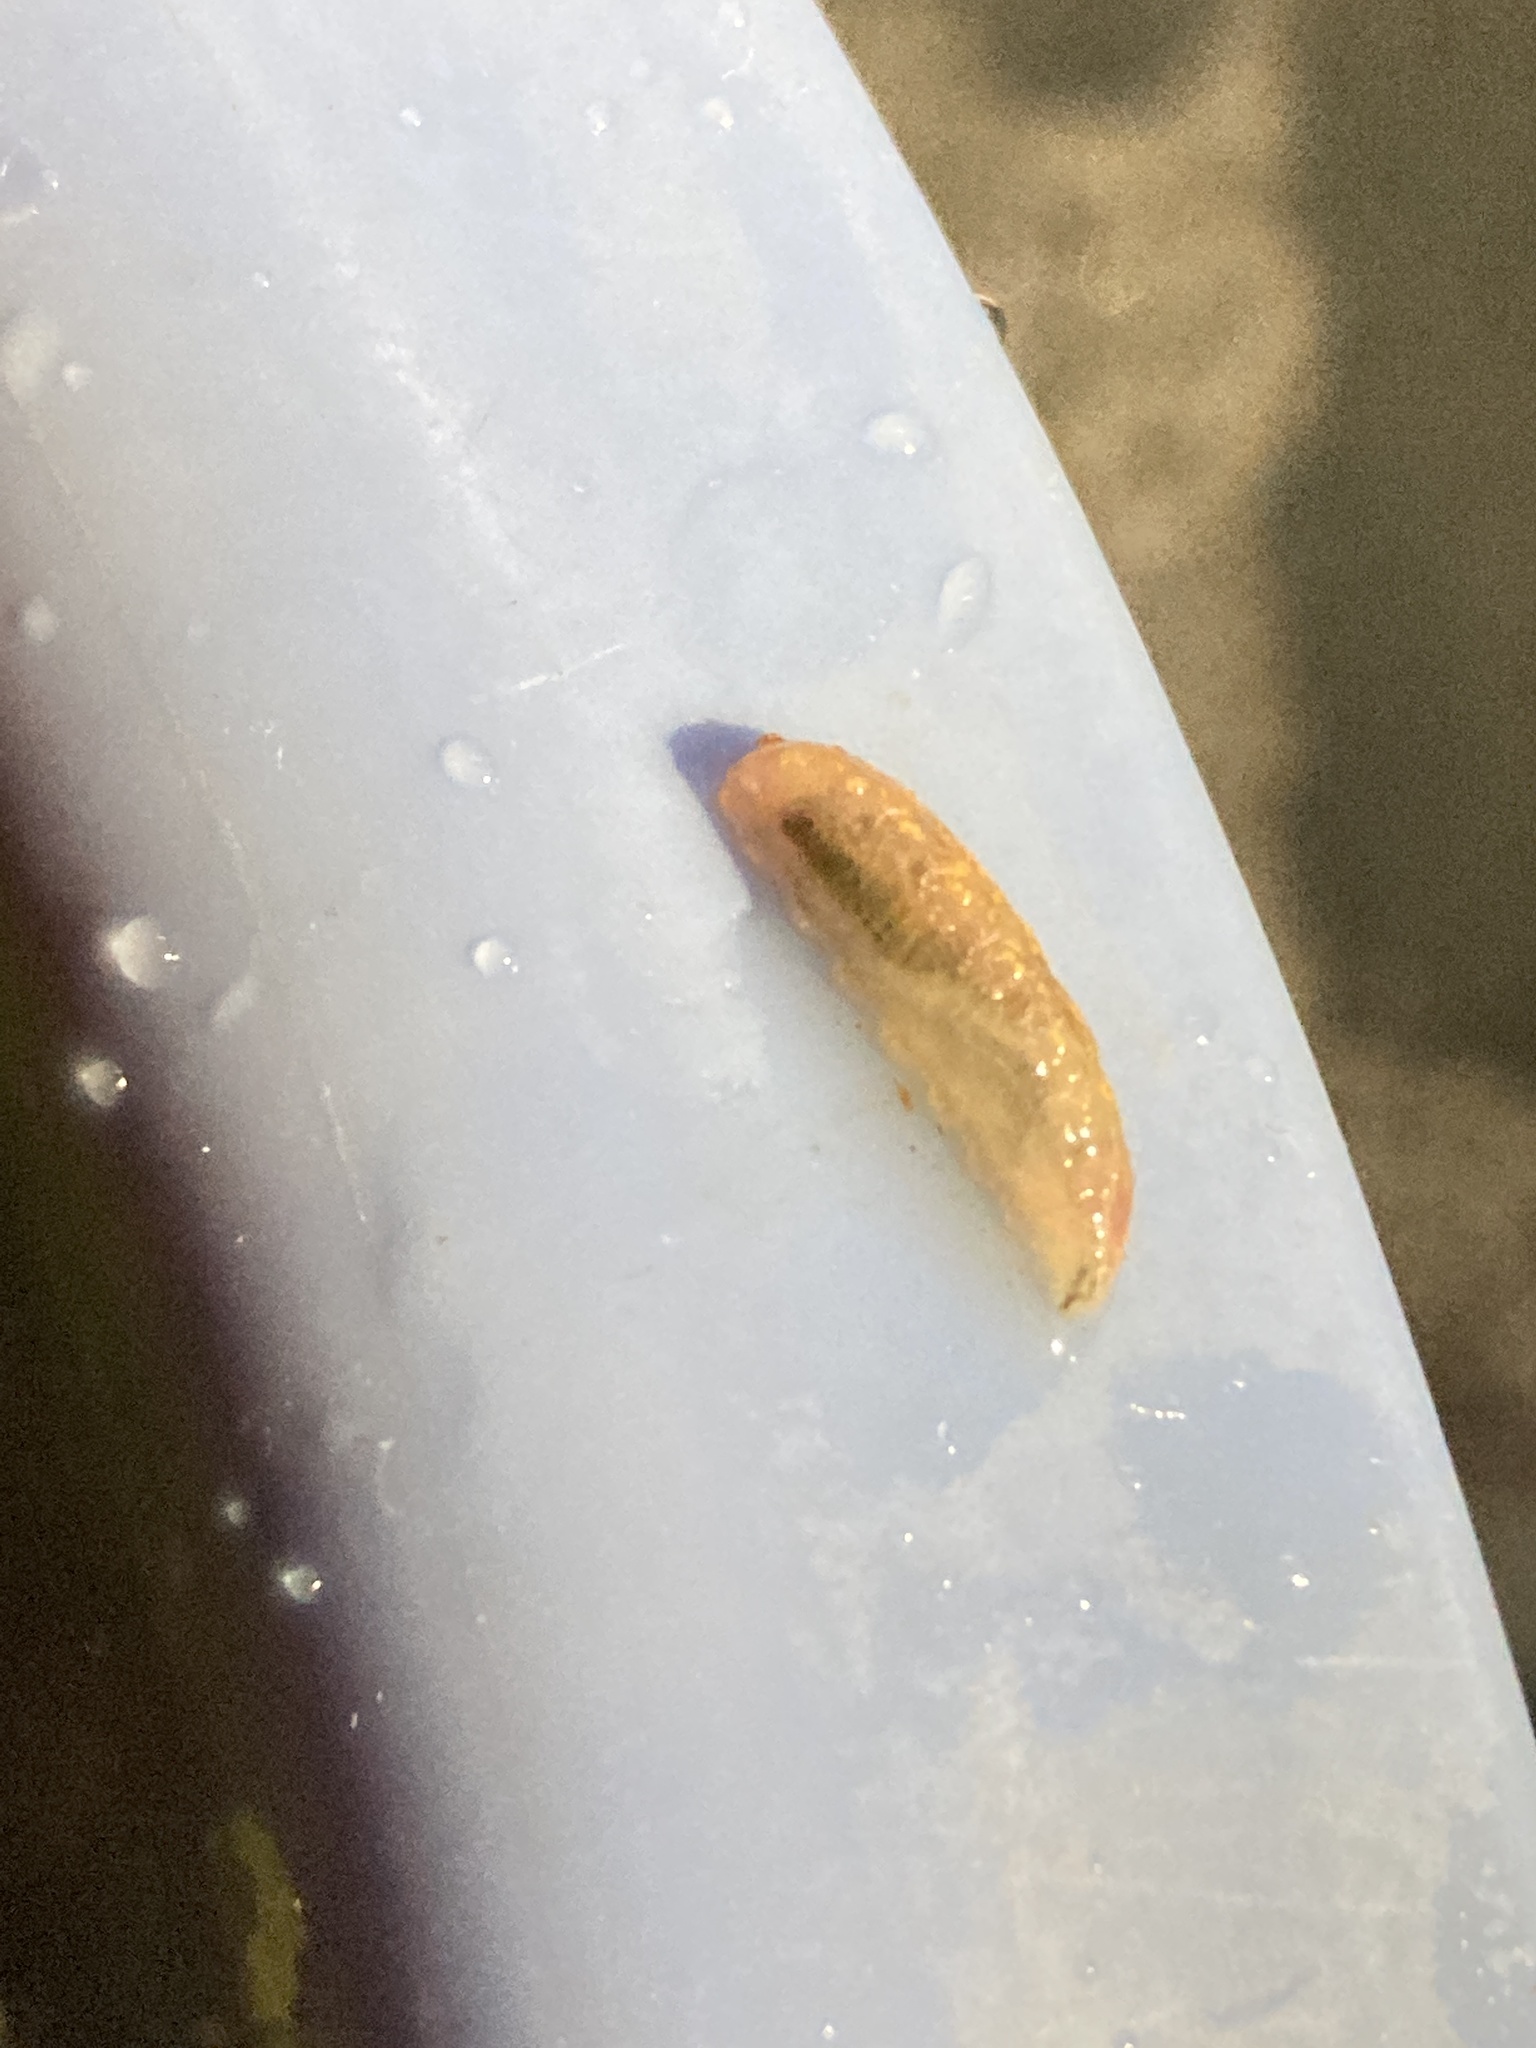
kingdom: Animalia
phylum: Arthropoda
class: Insecta
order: Diptera
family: Syrphidae
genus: Syrphus
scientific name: Syrphus
